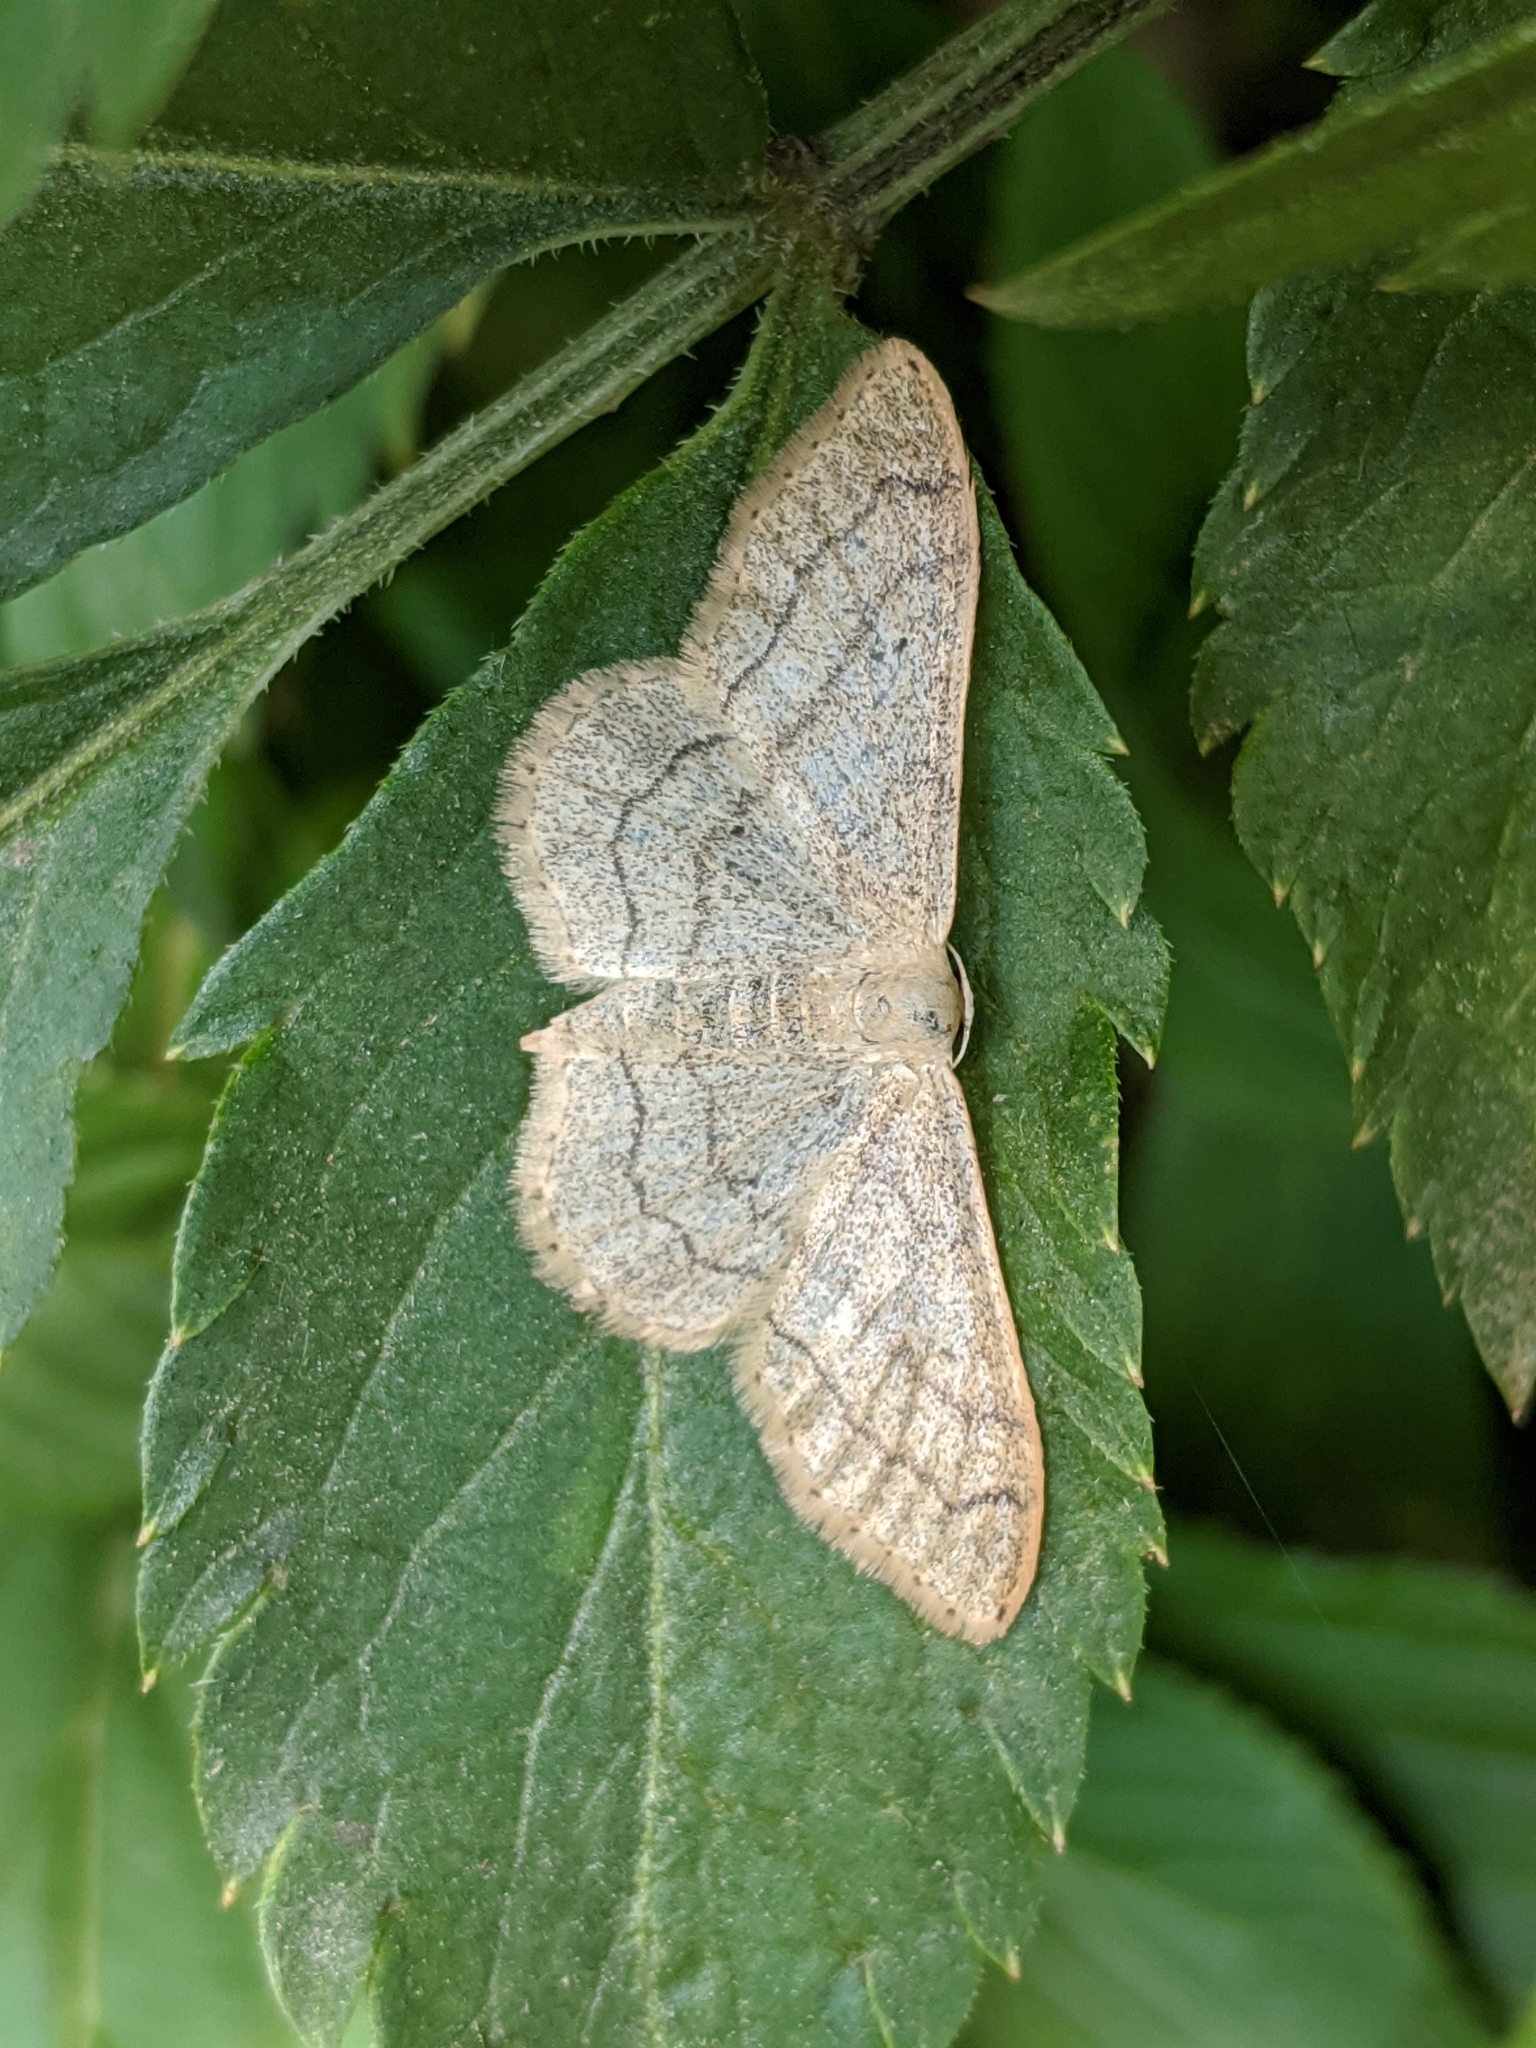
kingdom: Animalia
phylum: Arthropoda
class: Insecta
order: Lepidoptera
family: Geometridae
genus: Idaea
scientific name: Idaea aversata
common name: Riband wave
